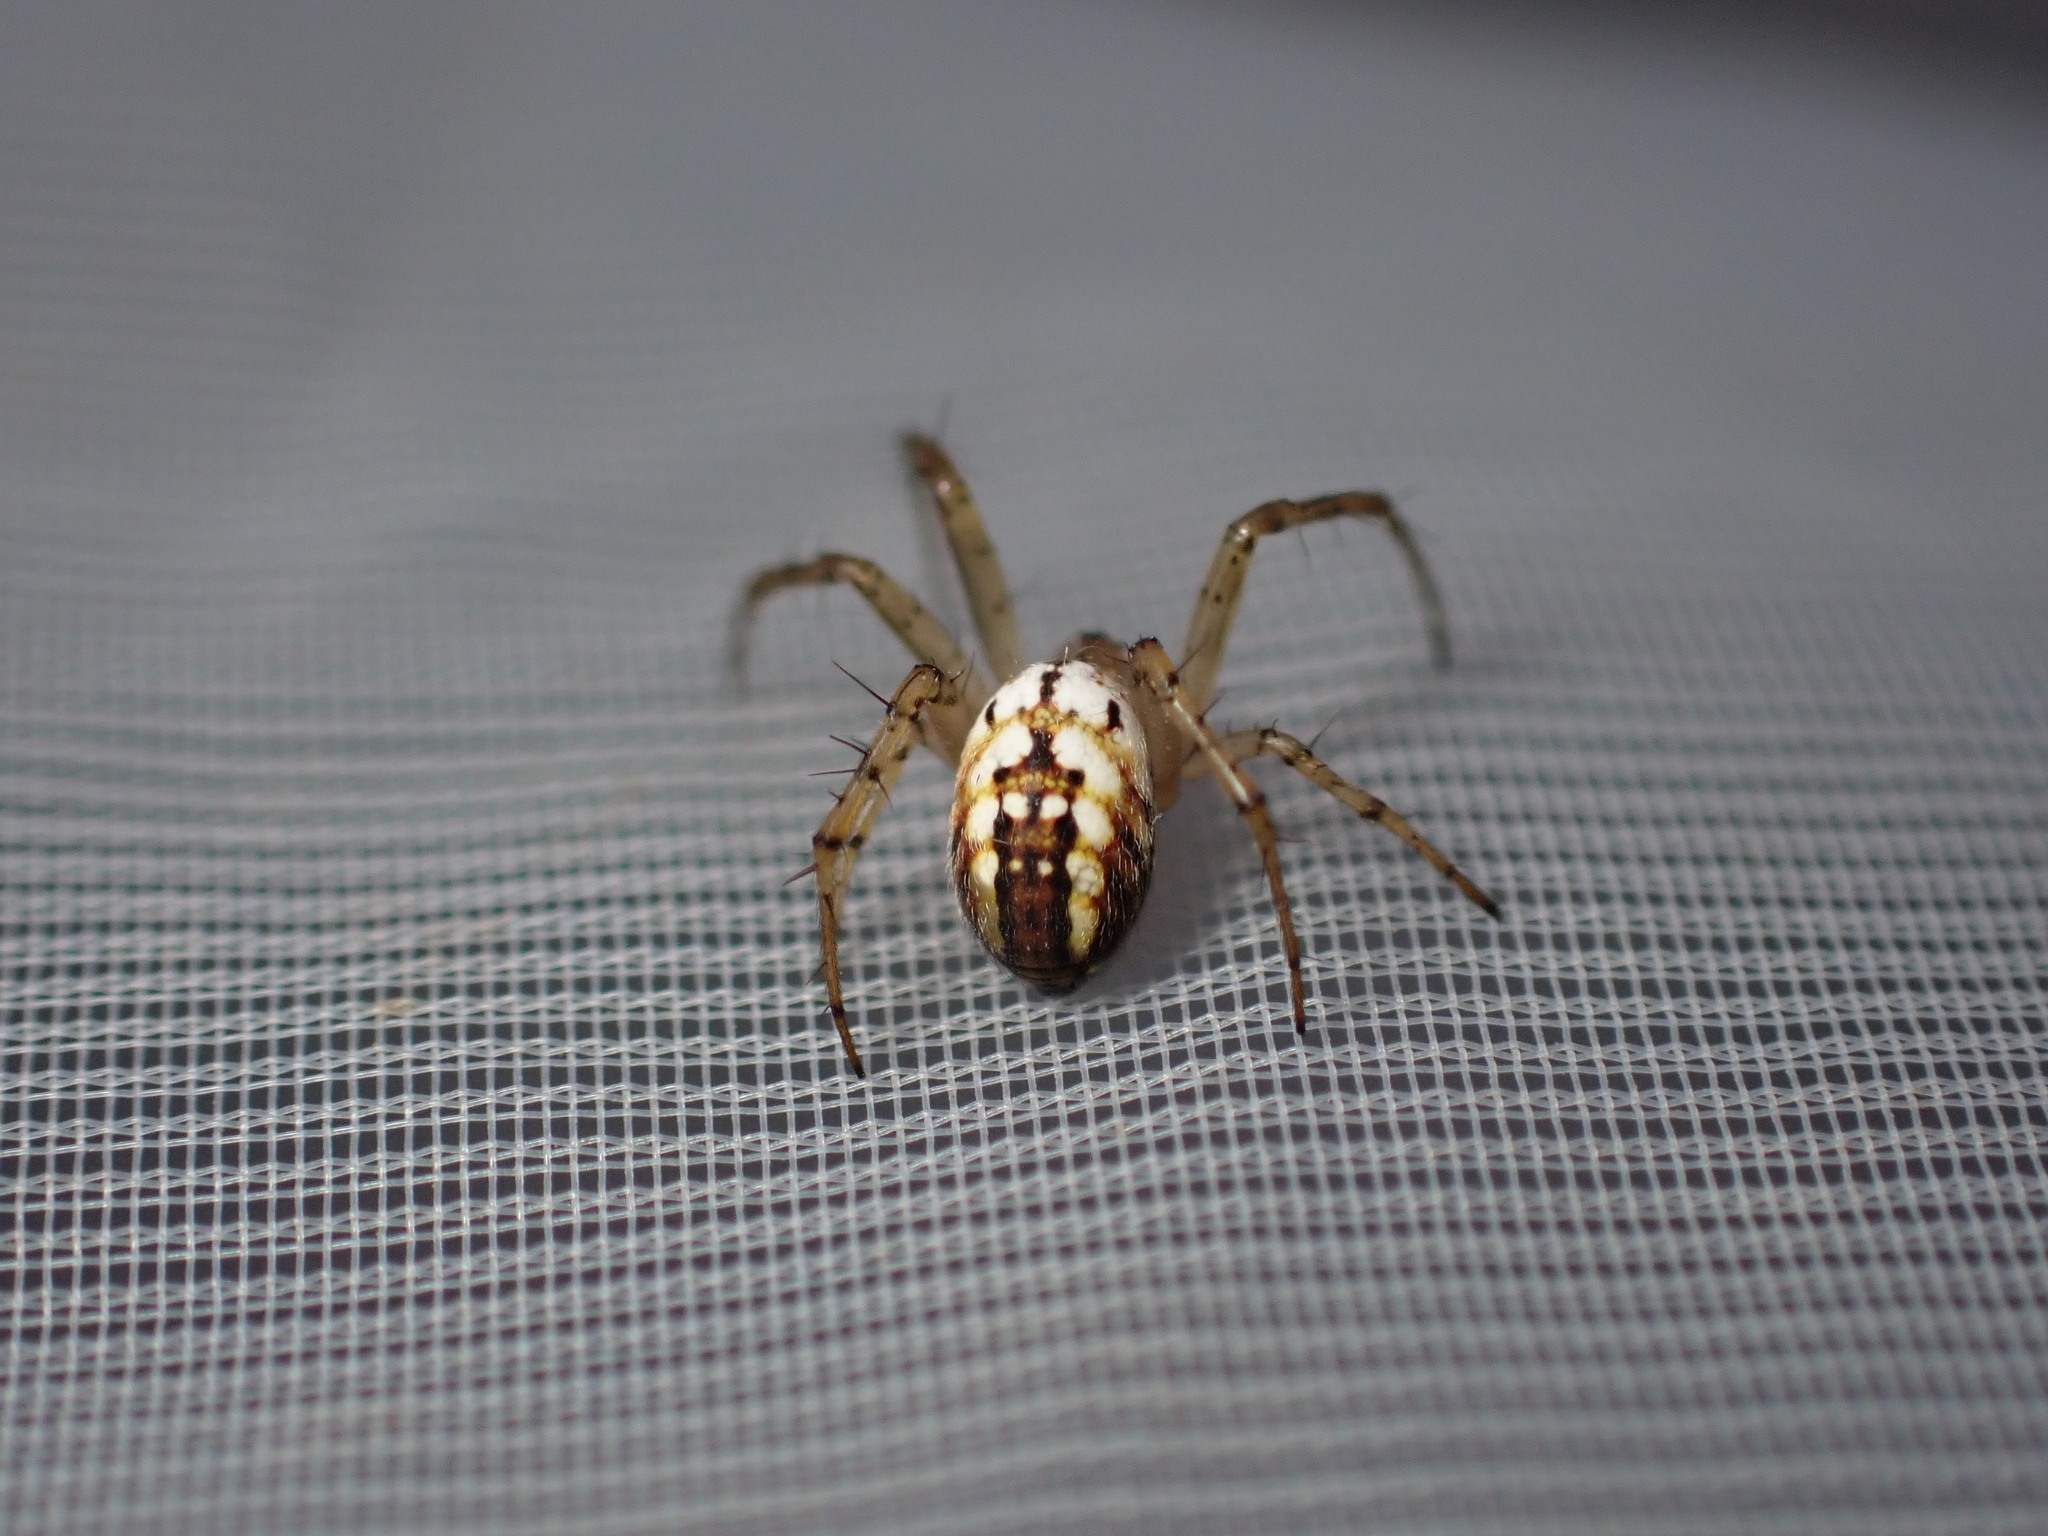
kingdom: Animalia
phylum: Arthropoda
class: Arachnida
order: Araneae
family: Araneidae
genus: Mangora
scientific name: Mangora acalypha
